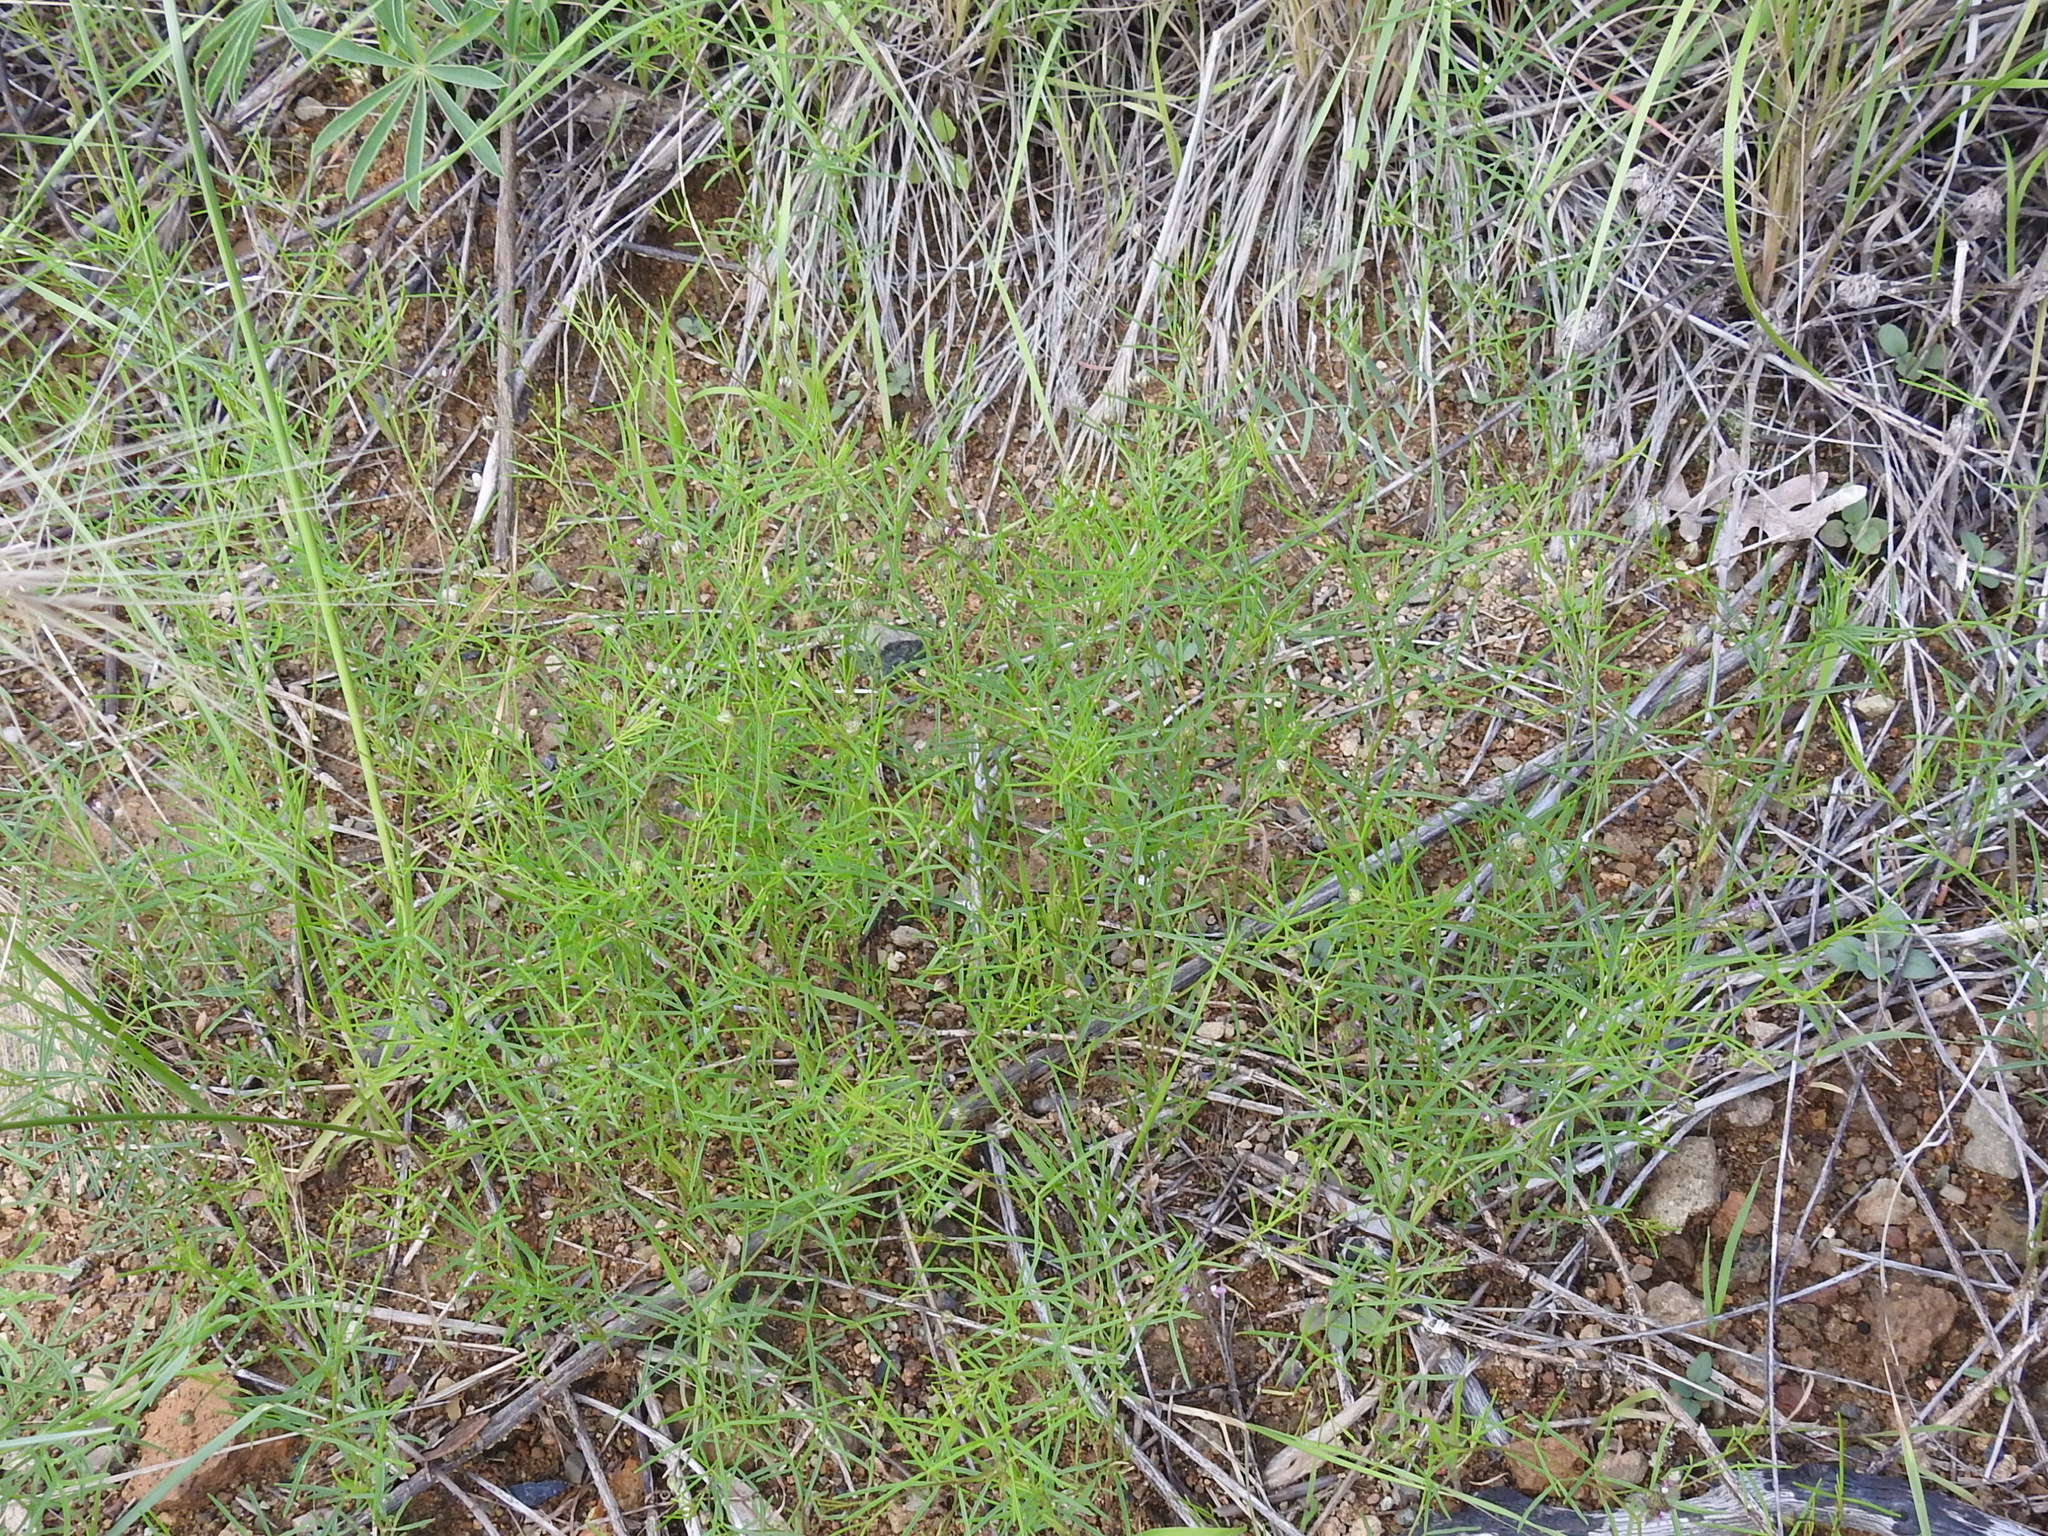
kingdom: Plantae
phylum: Tracheophyta
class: Magnoliopsida
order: Fabales
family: Fabaceae
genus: Dalea
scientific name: Dalea filiformis
